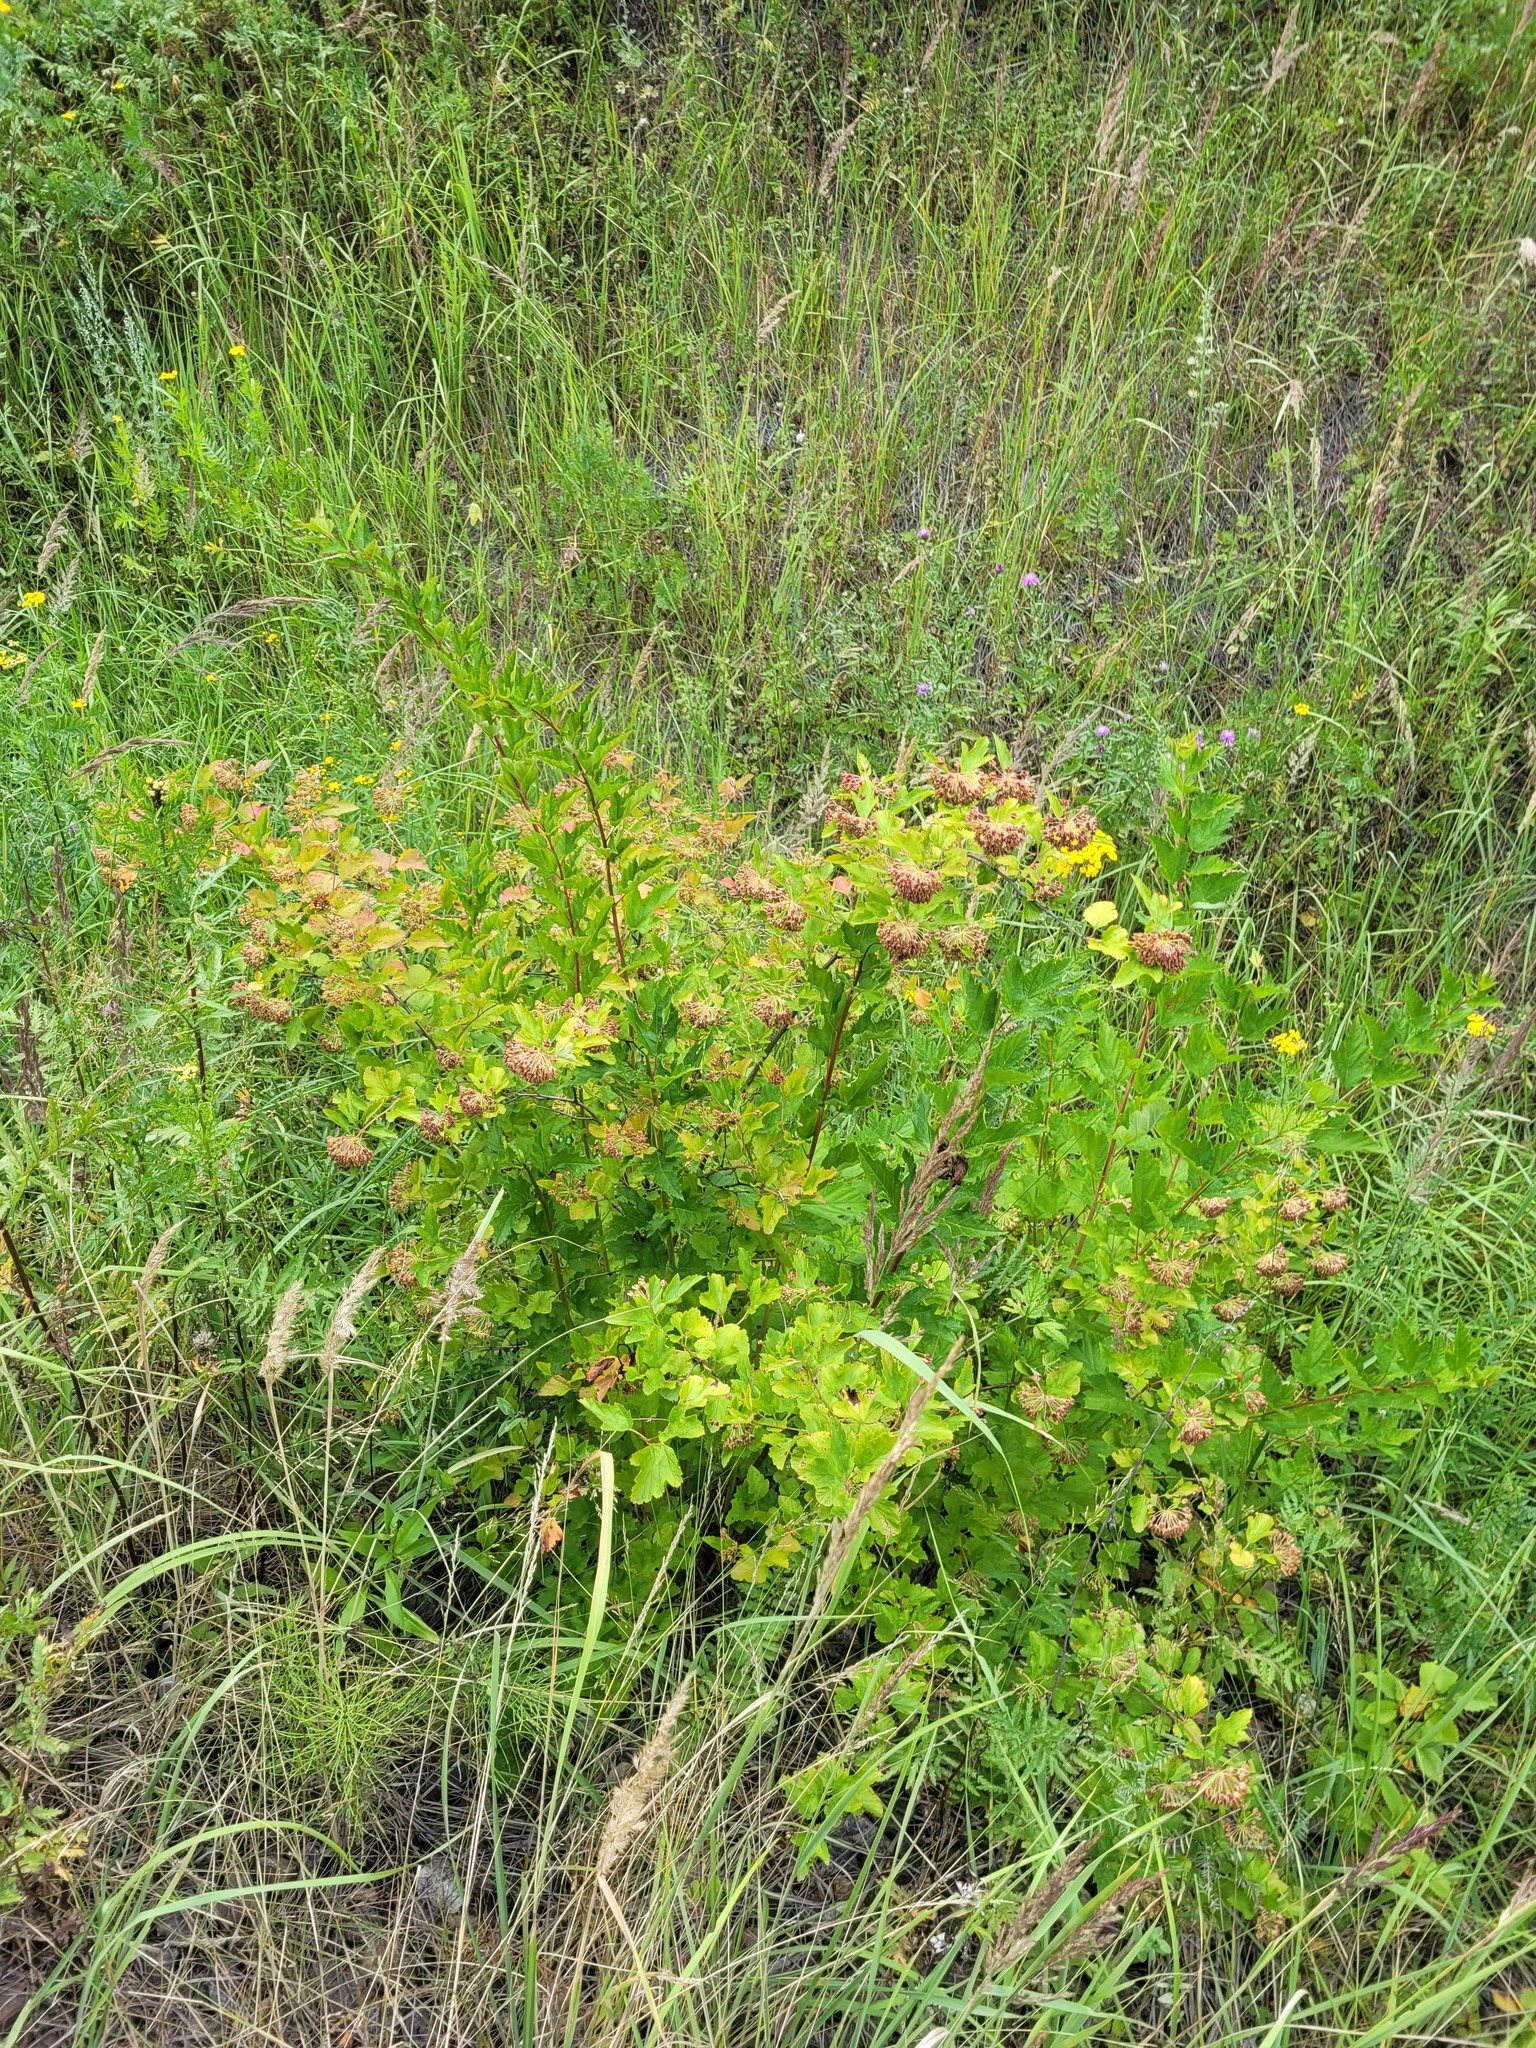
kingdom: Plantae
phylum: Tracheophyta
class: Magnoliopsida
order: Rosales
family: Rosaceae
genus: Physocarpus
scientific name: Physocarpus opulifolius
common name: Ninebark
